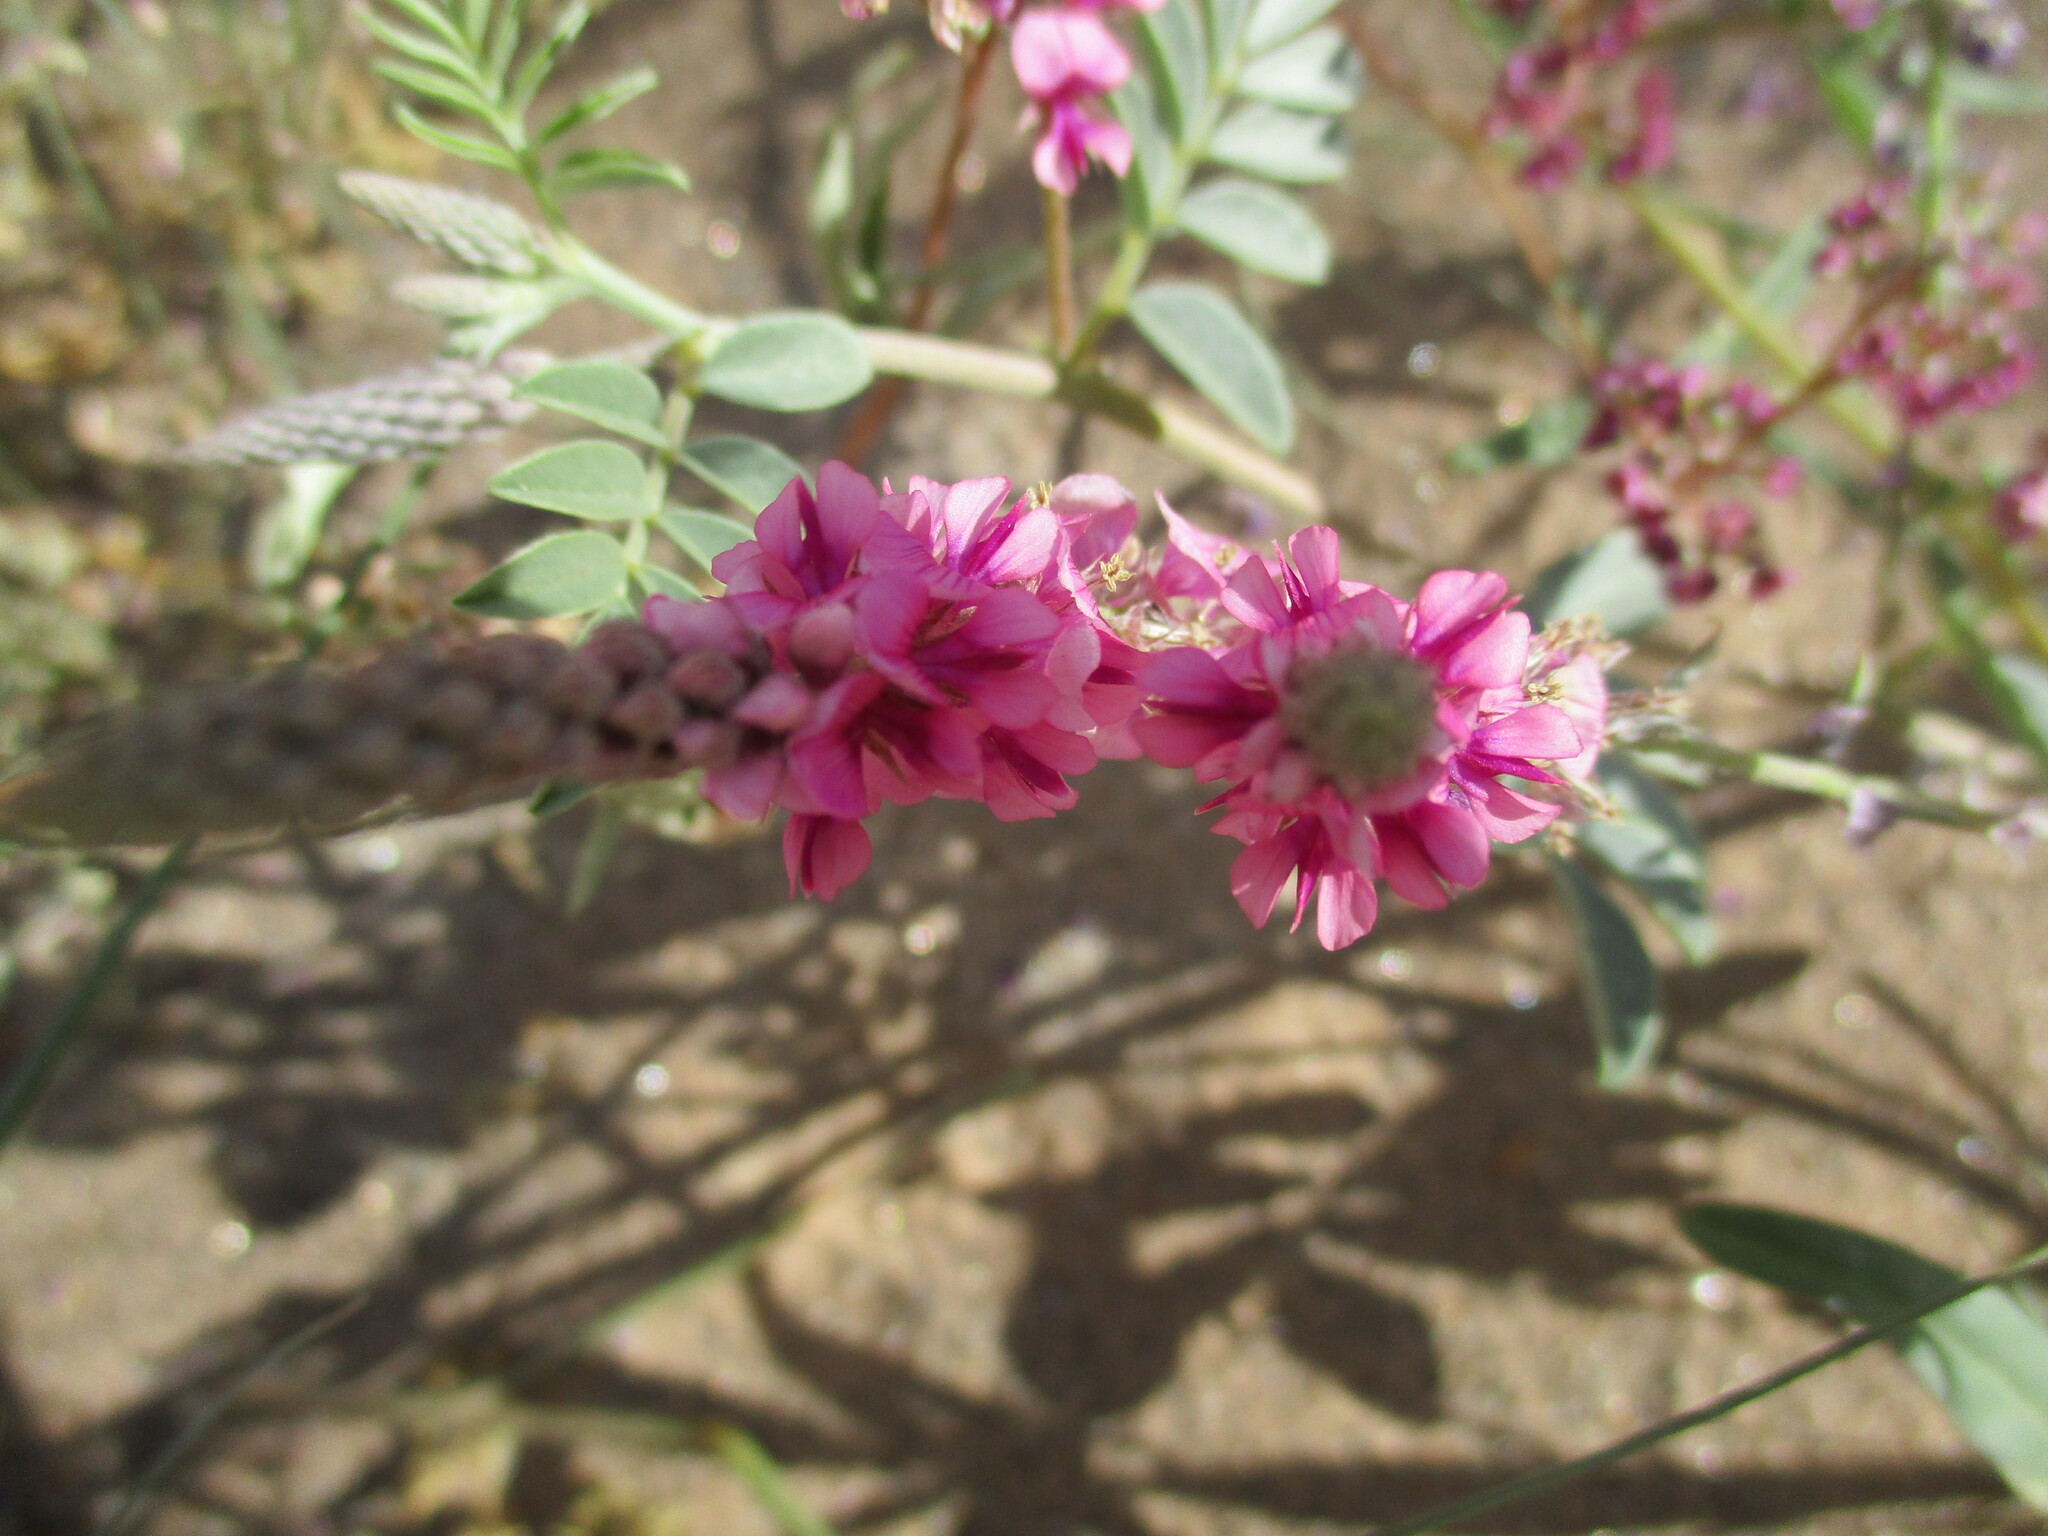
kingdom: Plantae
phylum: Tracheophyta
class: Magnoliopsida
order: Fabales
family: Fabaceae
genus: Indigofera
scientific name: Indigofera auricoma
